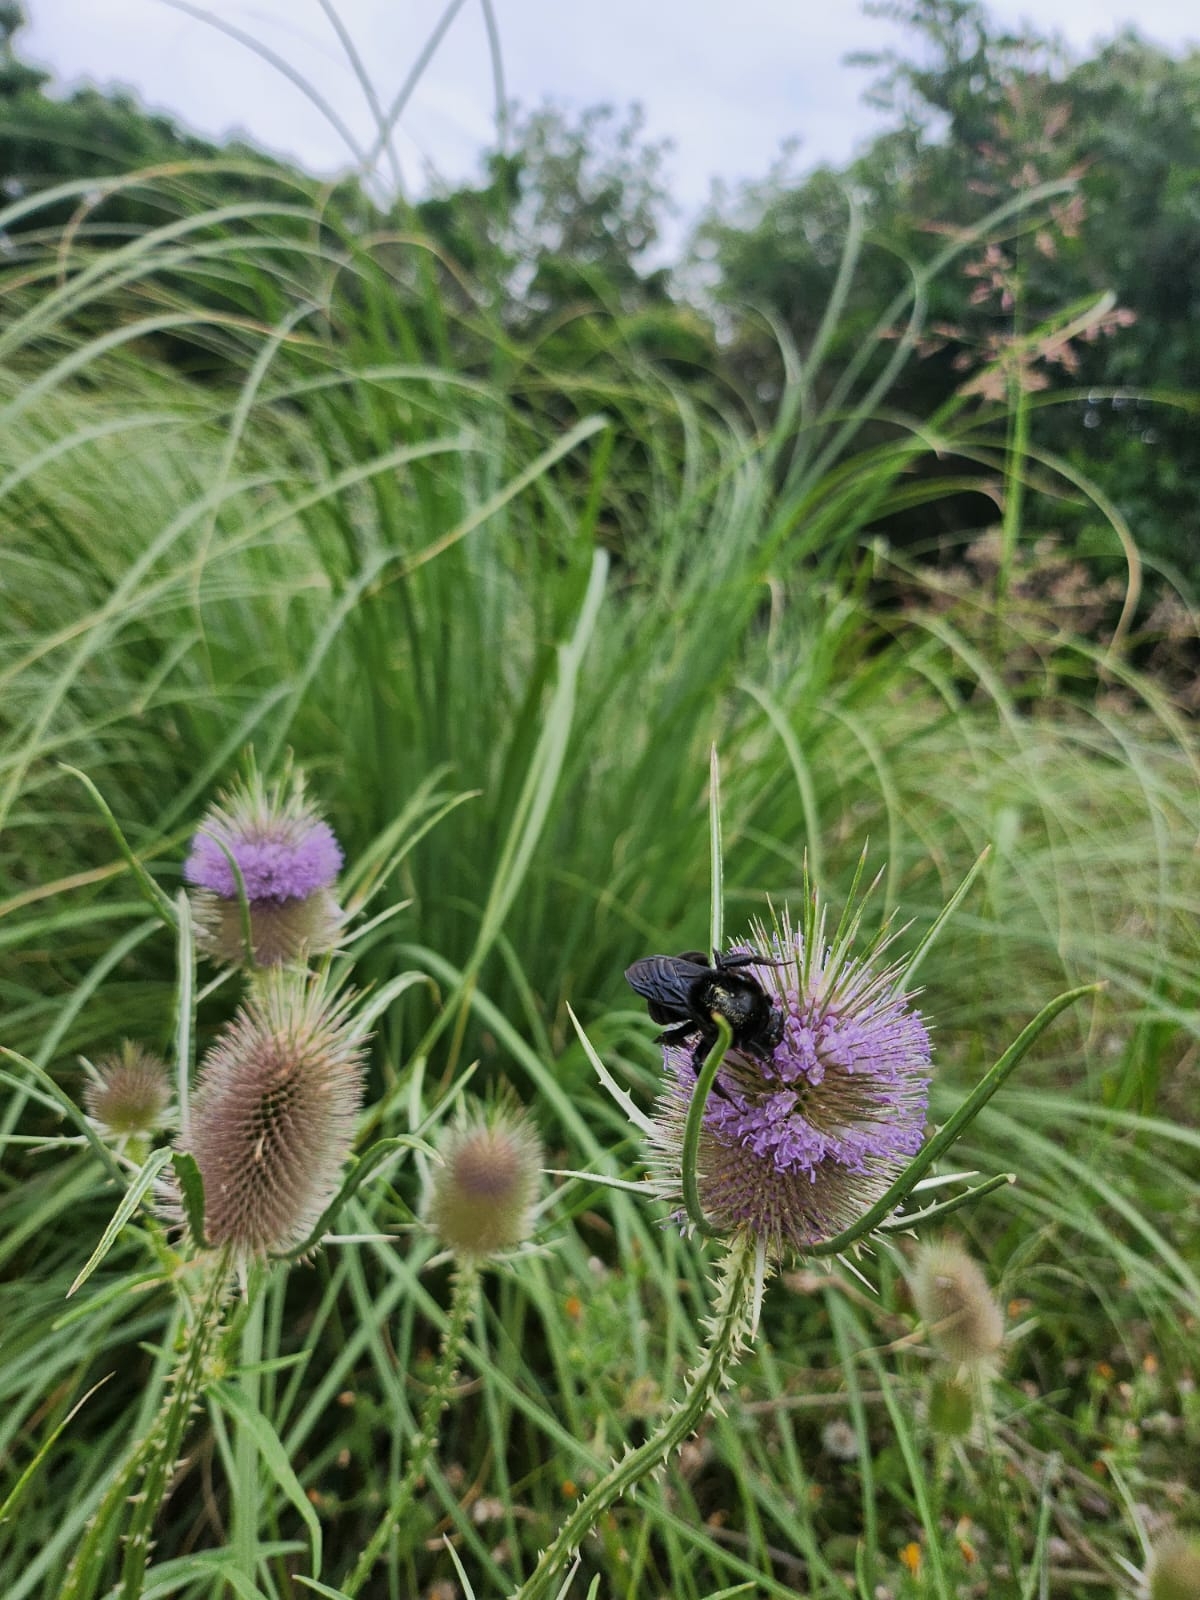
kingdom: Animalia
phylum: Arthropoda
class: Insecta
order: Hymenoptera
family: Apidae
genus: Bombus
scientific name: Bombus pauloensis
